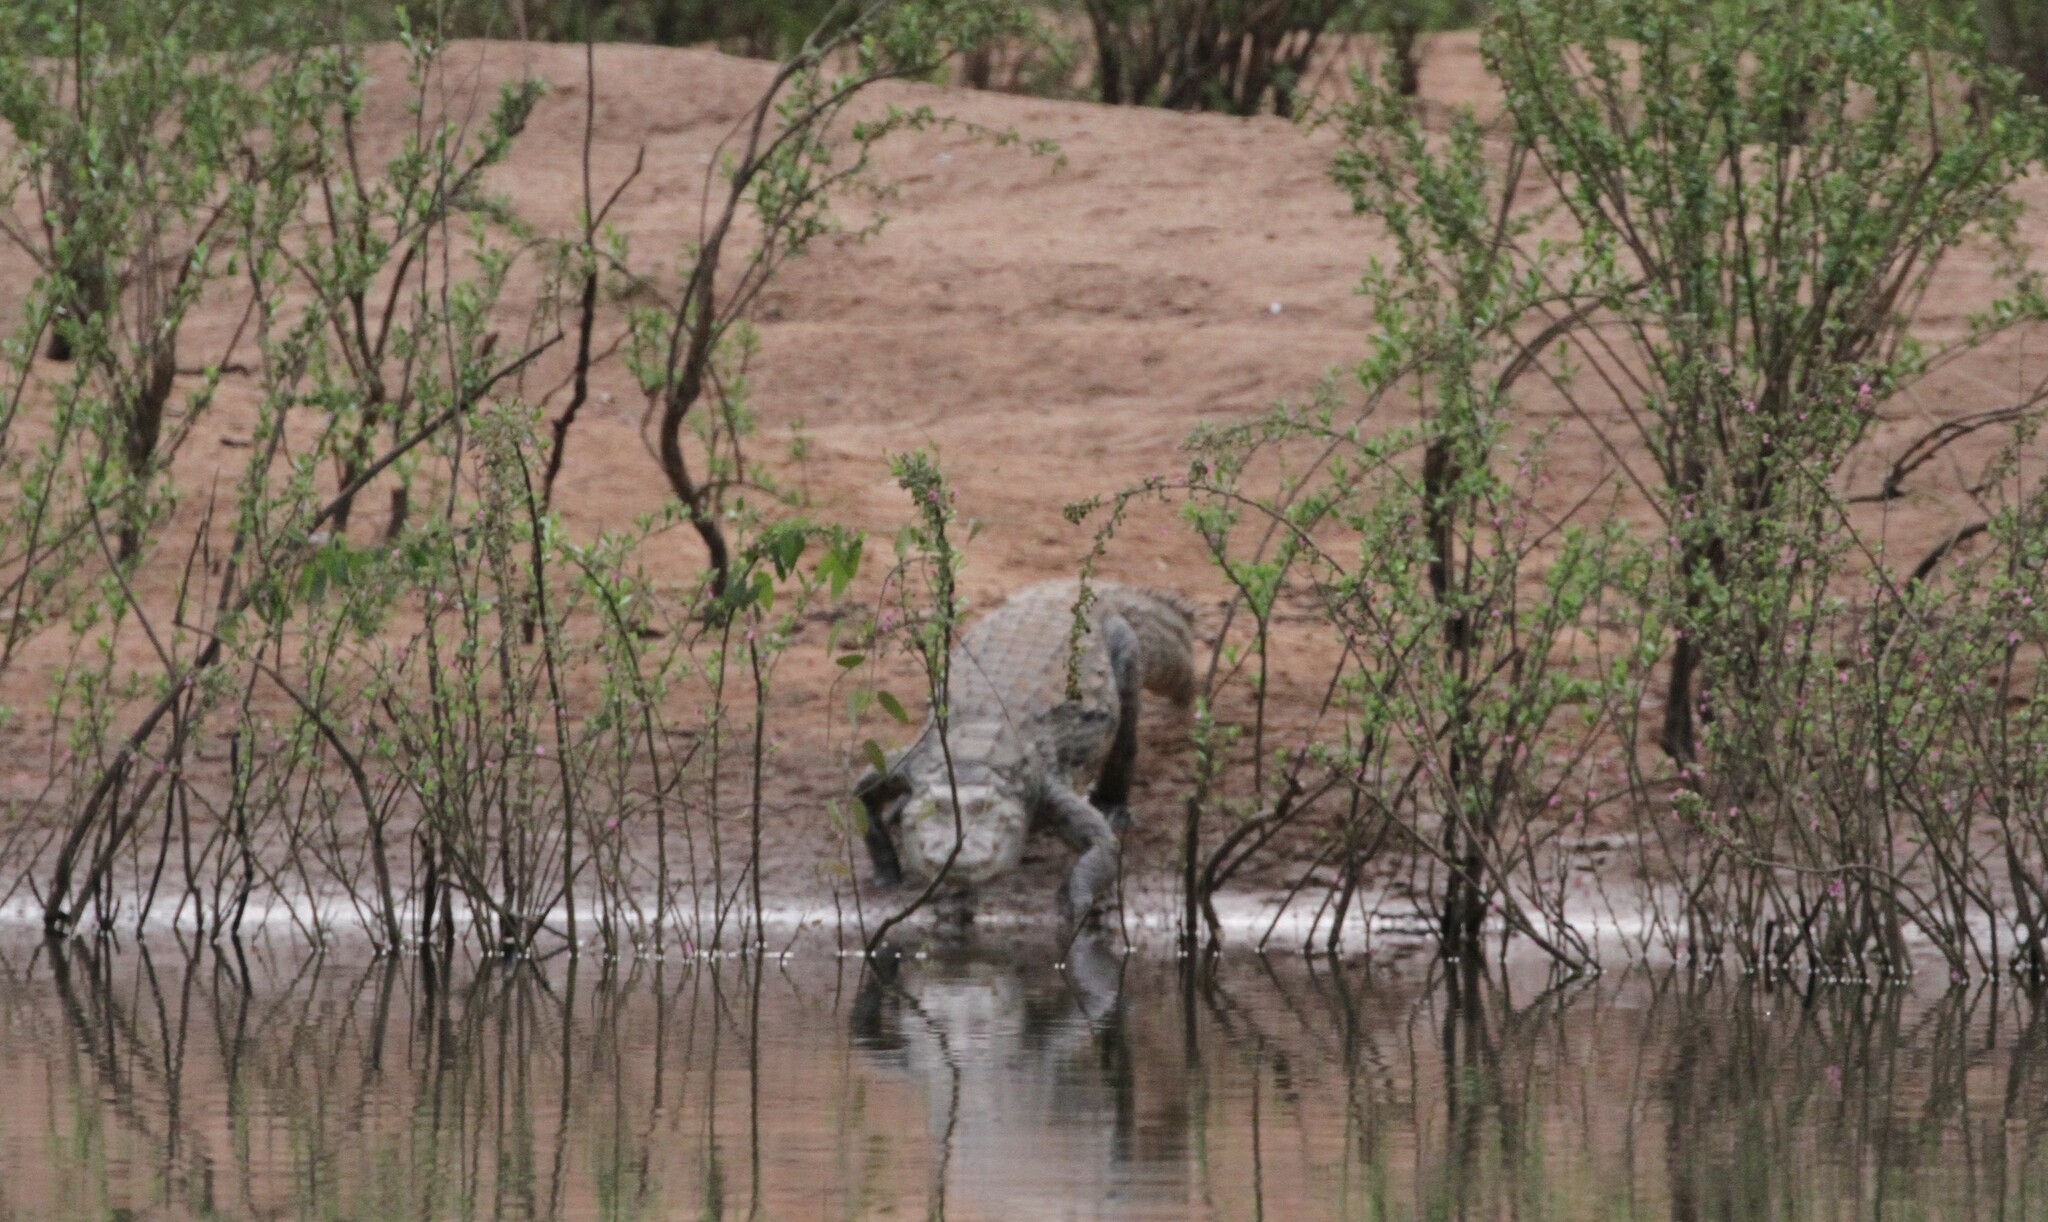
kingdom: Animalia
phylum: Chordata
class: Crocodylia
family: Crocodylidae
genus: Crocodylus
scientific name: Crocodylus suchus
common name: West african crocodile
